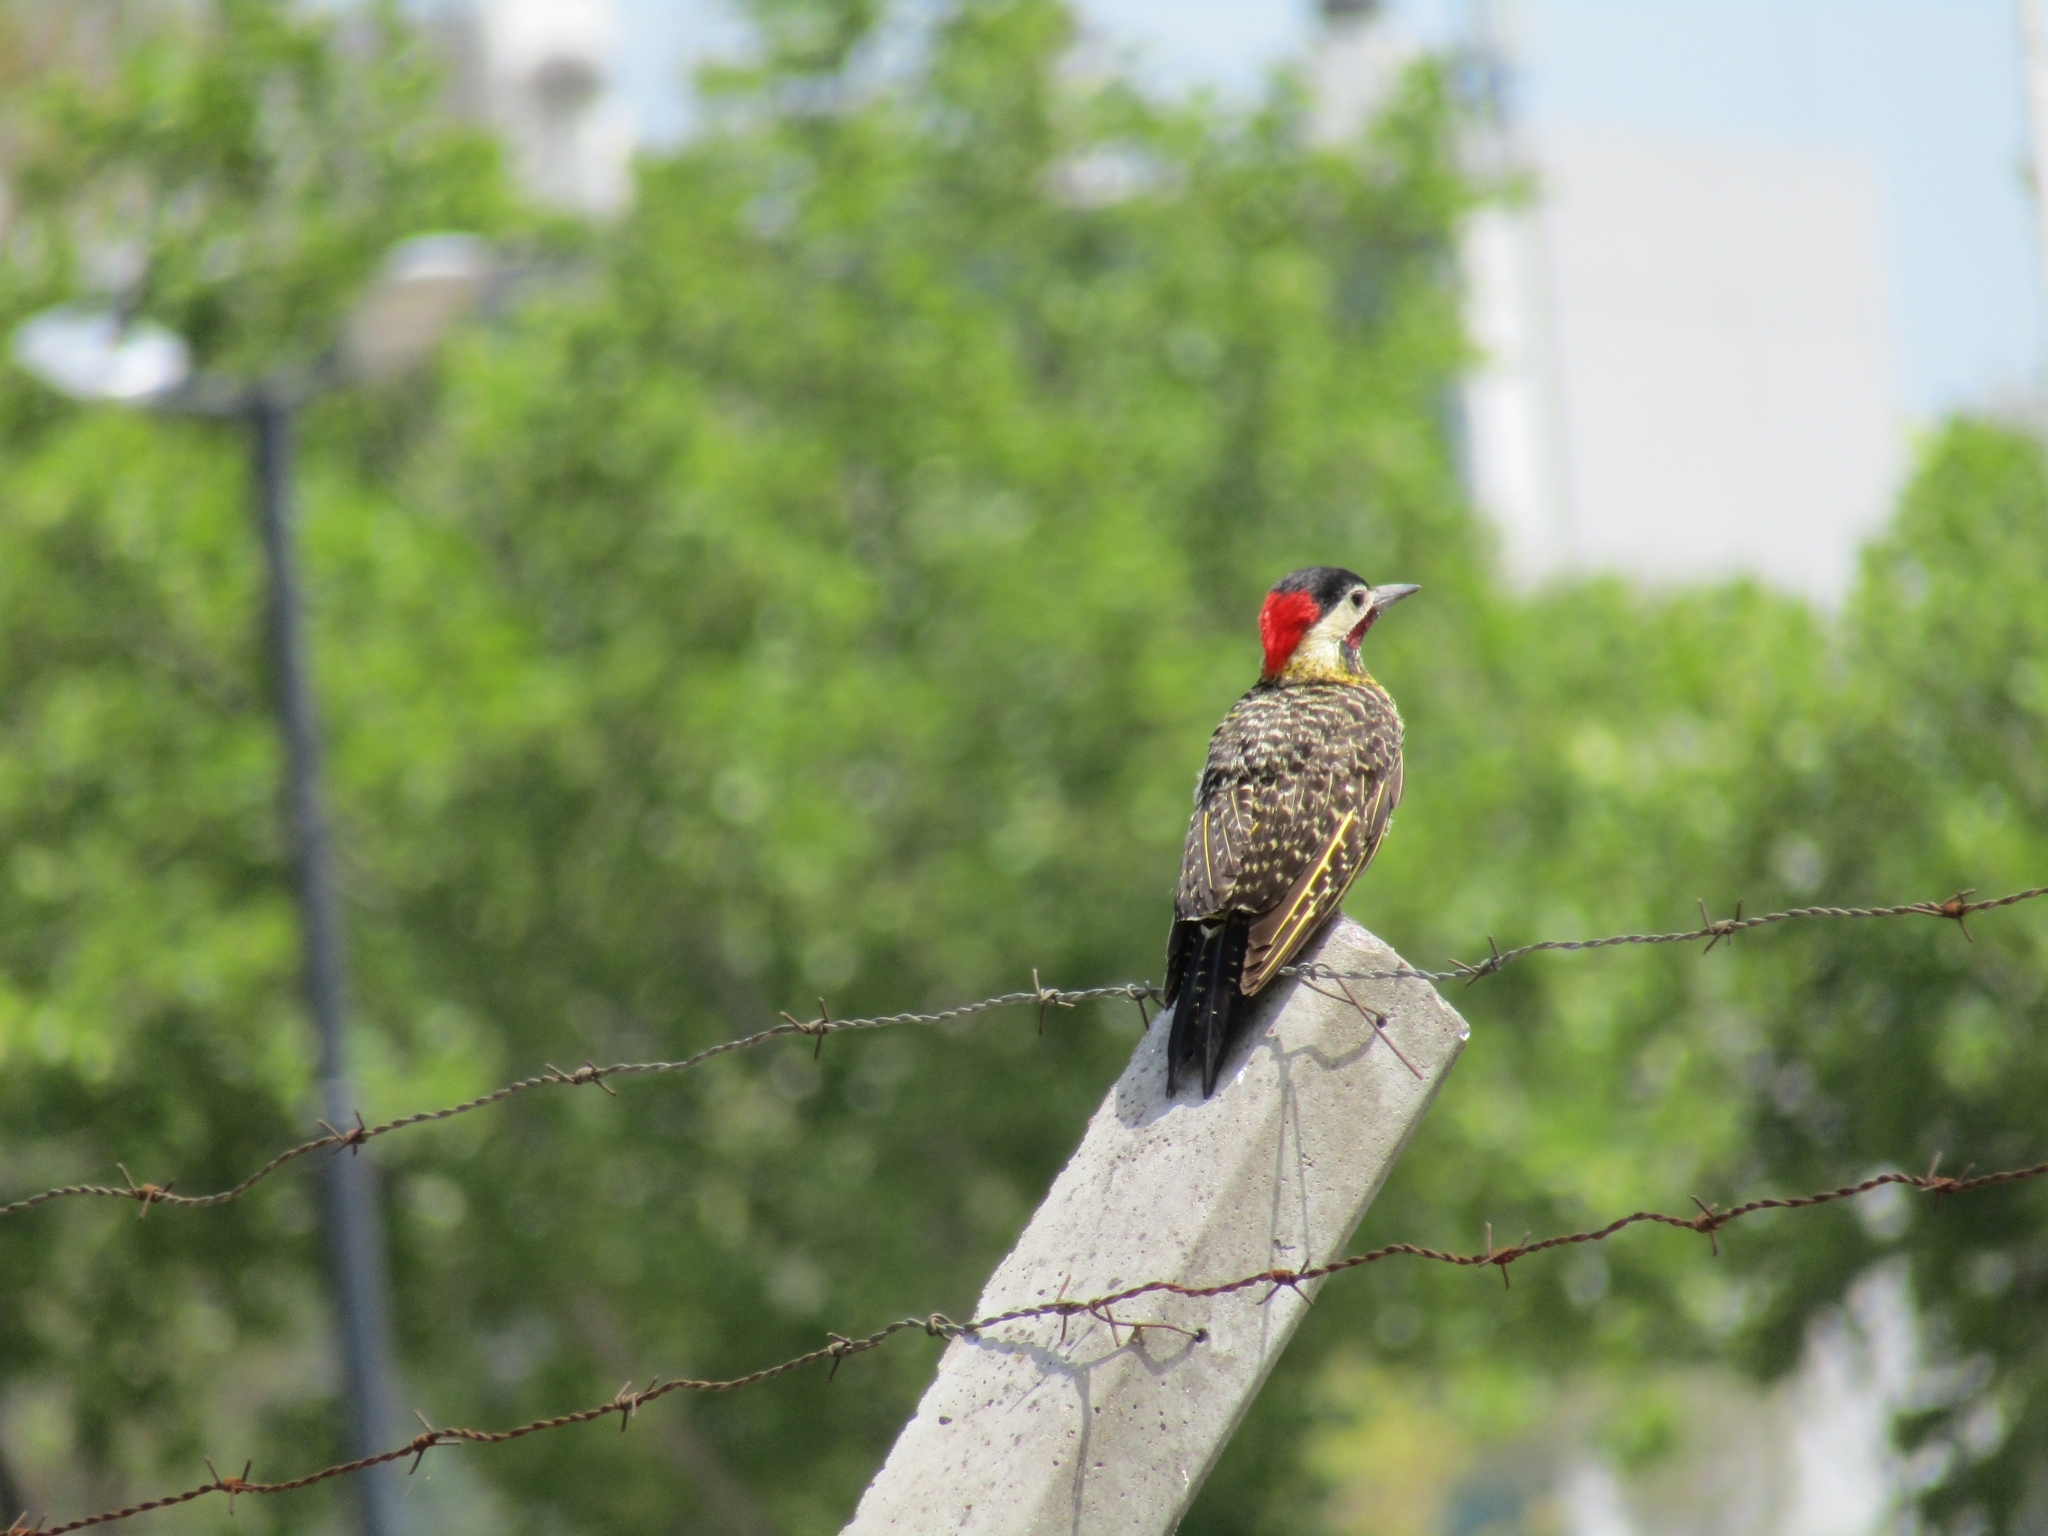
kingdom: Animalia
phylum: Chordata
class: Aves
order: Piciformes
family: Picidae
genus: Colaptes
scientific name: Colaptes melanochloros
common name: Green-barred woodpecker
